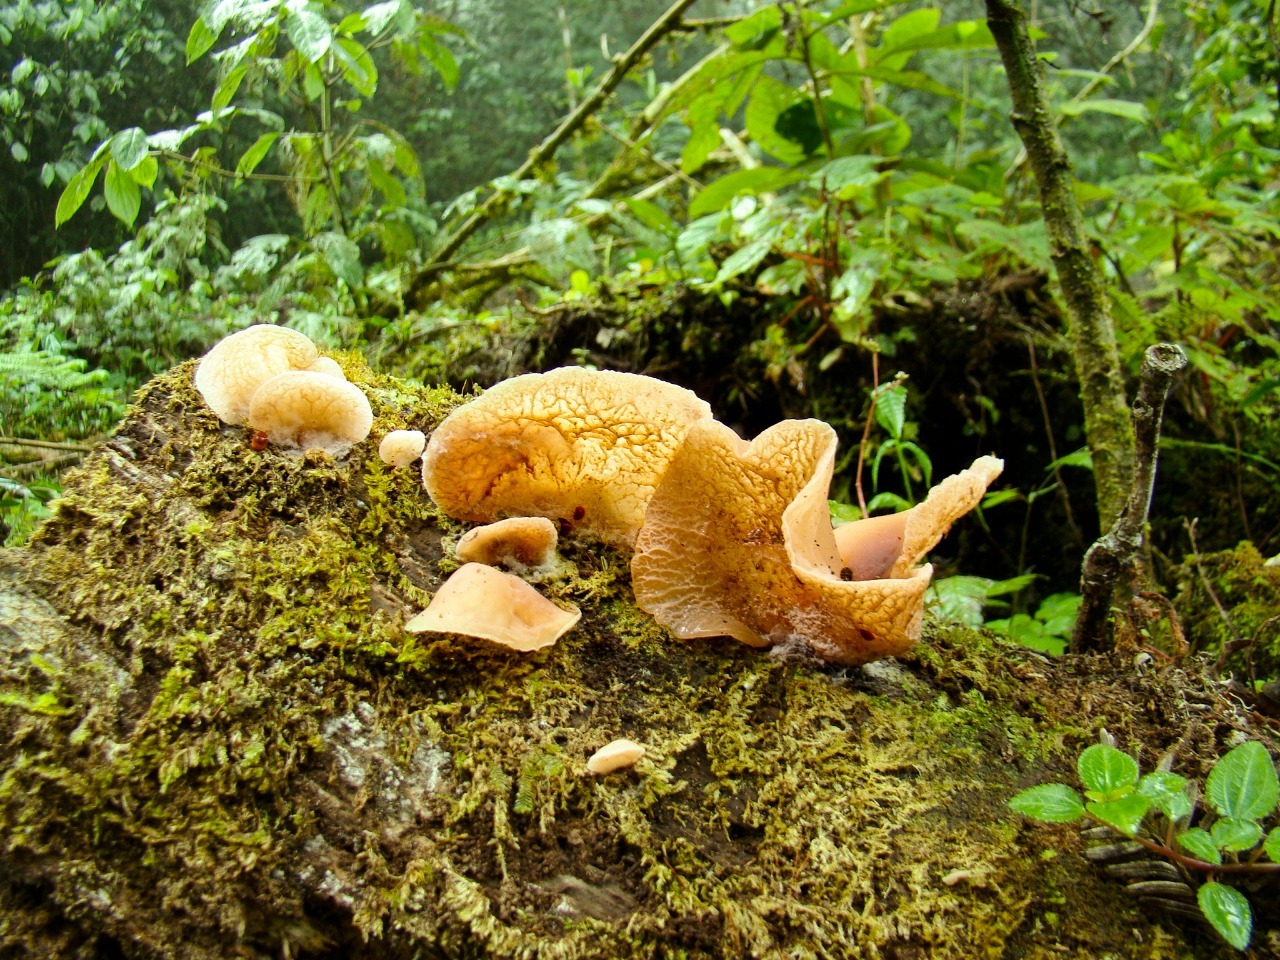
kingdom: Fungi
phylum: Basidiomycota
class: Agaricomycetes
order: Auriculariales
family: Auriculariaceae
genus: Auricularia
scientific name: Auricularia delicata
